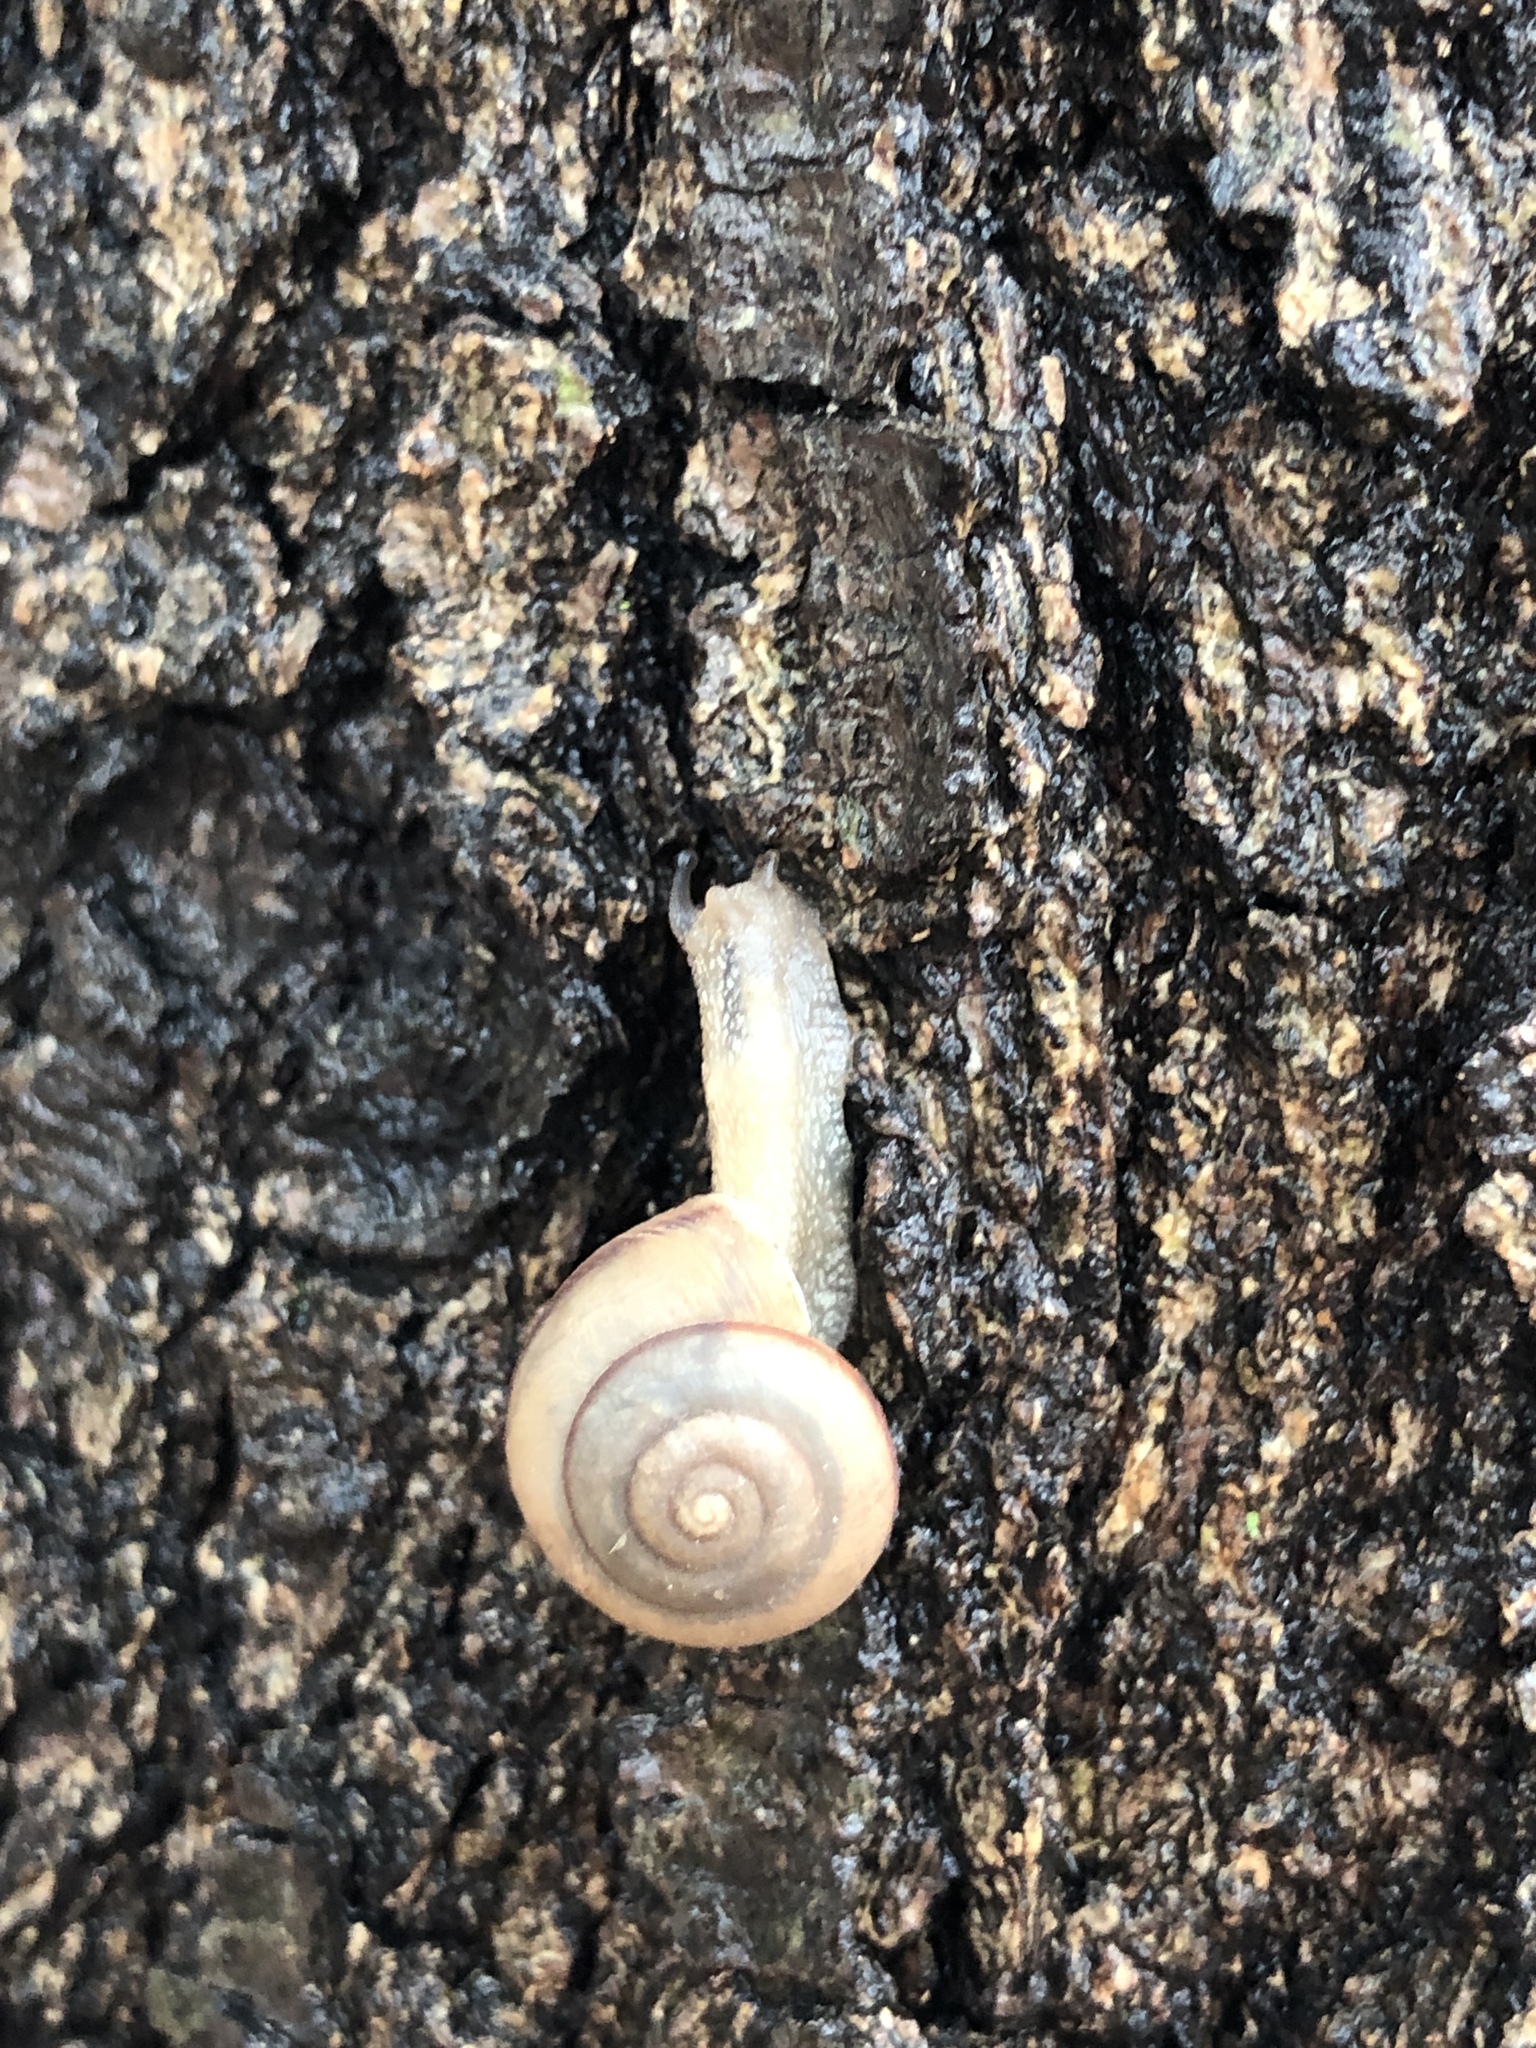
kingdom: Animalia
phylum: Mollusca
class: Gastropoda
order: Stylommatophora
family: Camaenidae
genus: Bradybaena
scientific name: Bradybaena similaris
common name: Asian trampsnail
